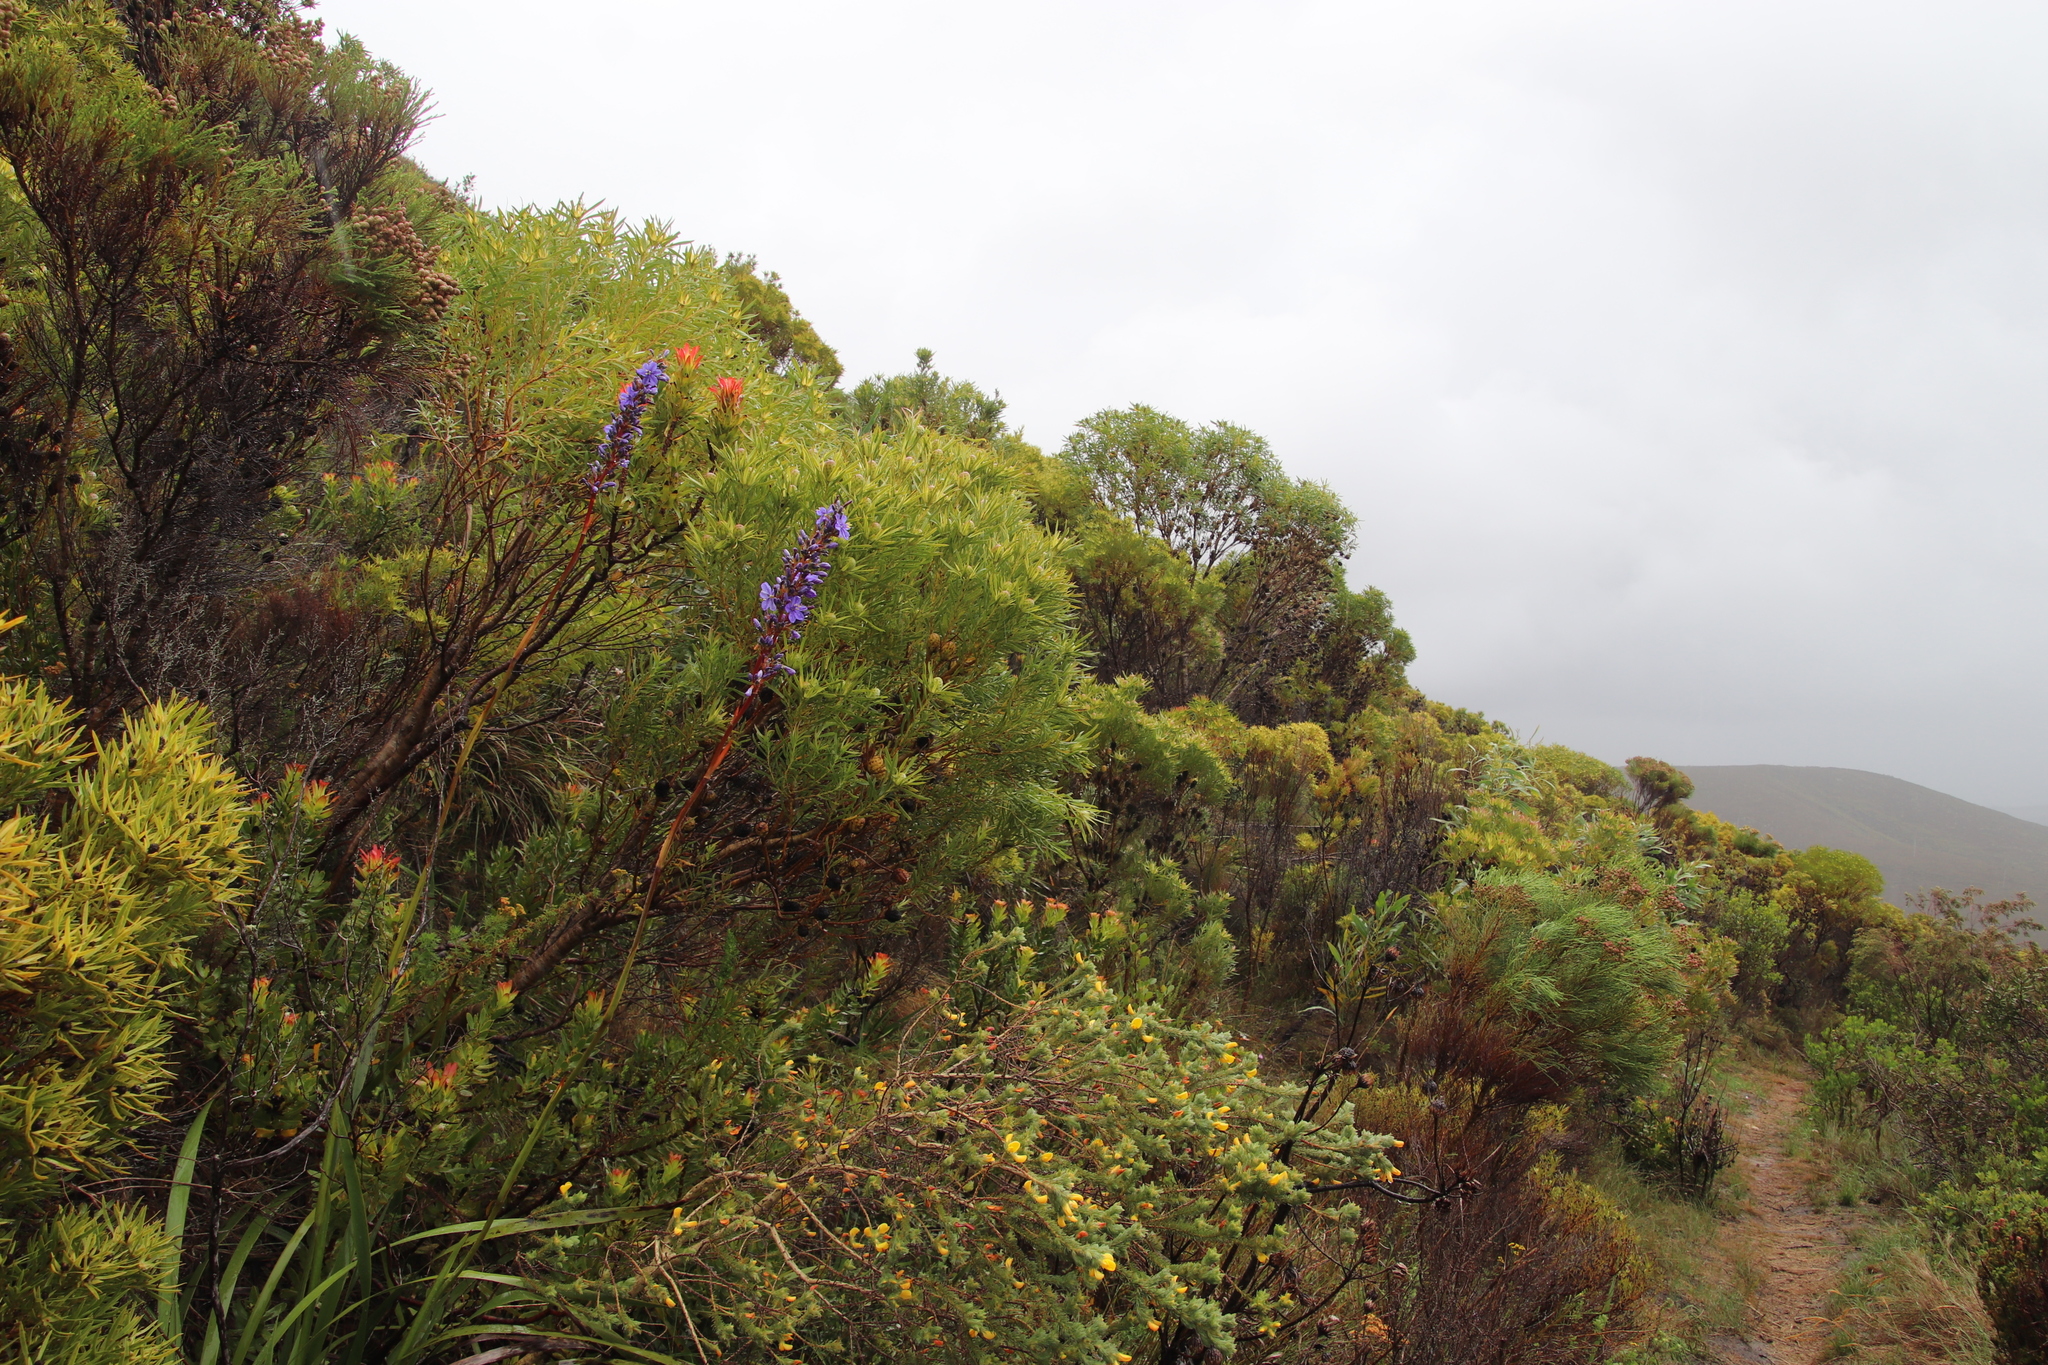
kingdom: Plantae
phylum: Tracheophyta
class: Magnoliopsida
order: Proteales
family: Proteaceae
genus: Leucadendron
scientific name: Leucadendron coniferum
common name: Dune conebush
